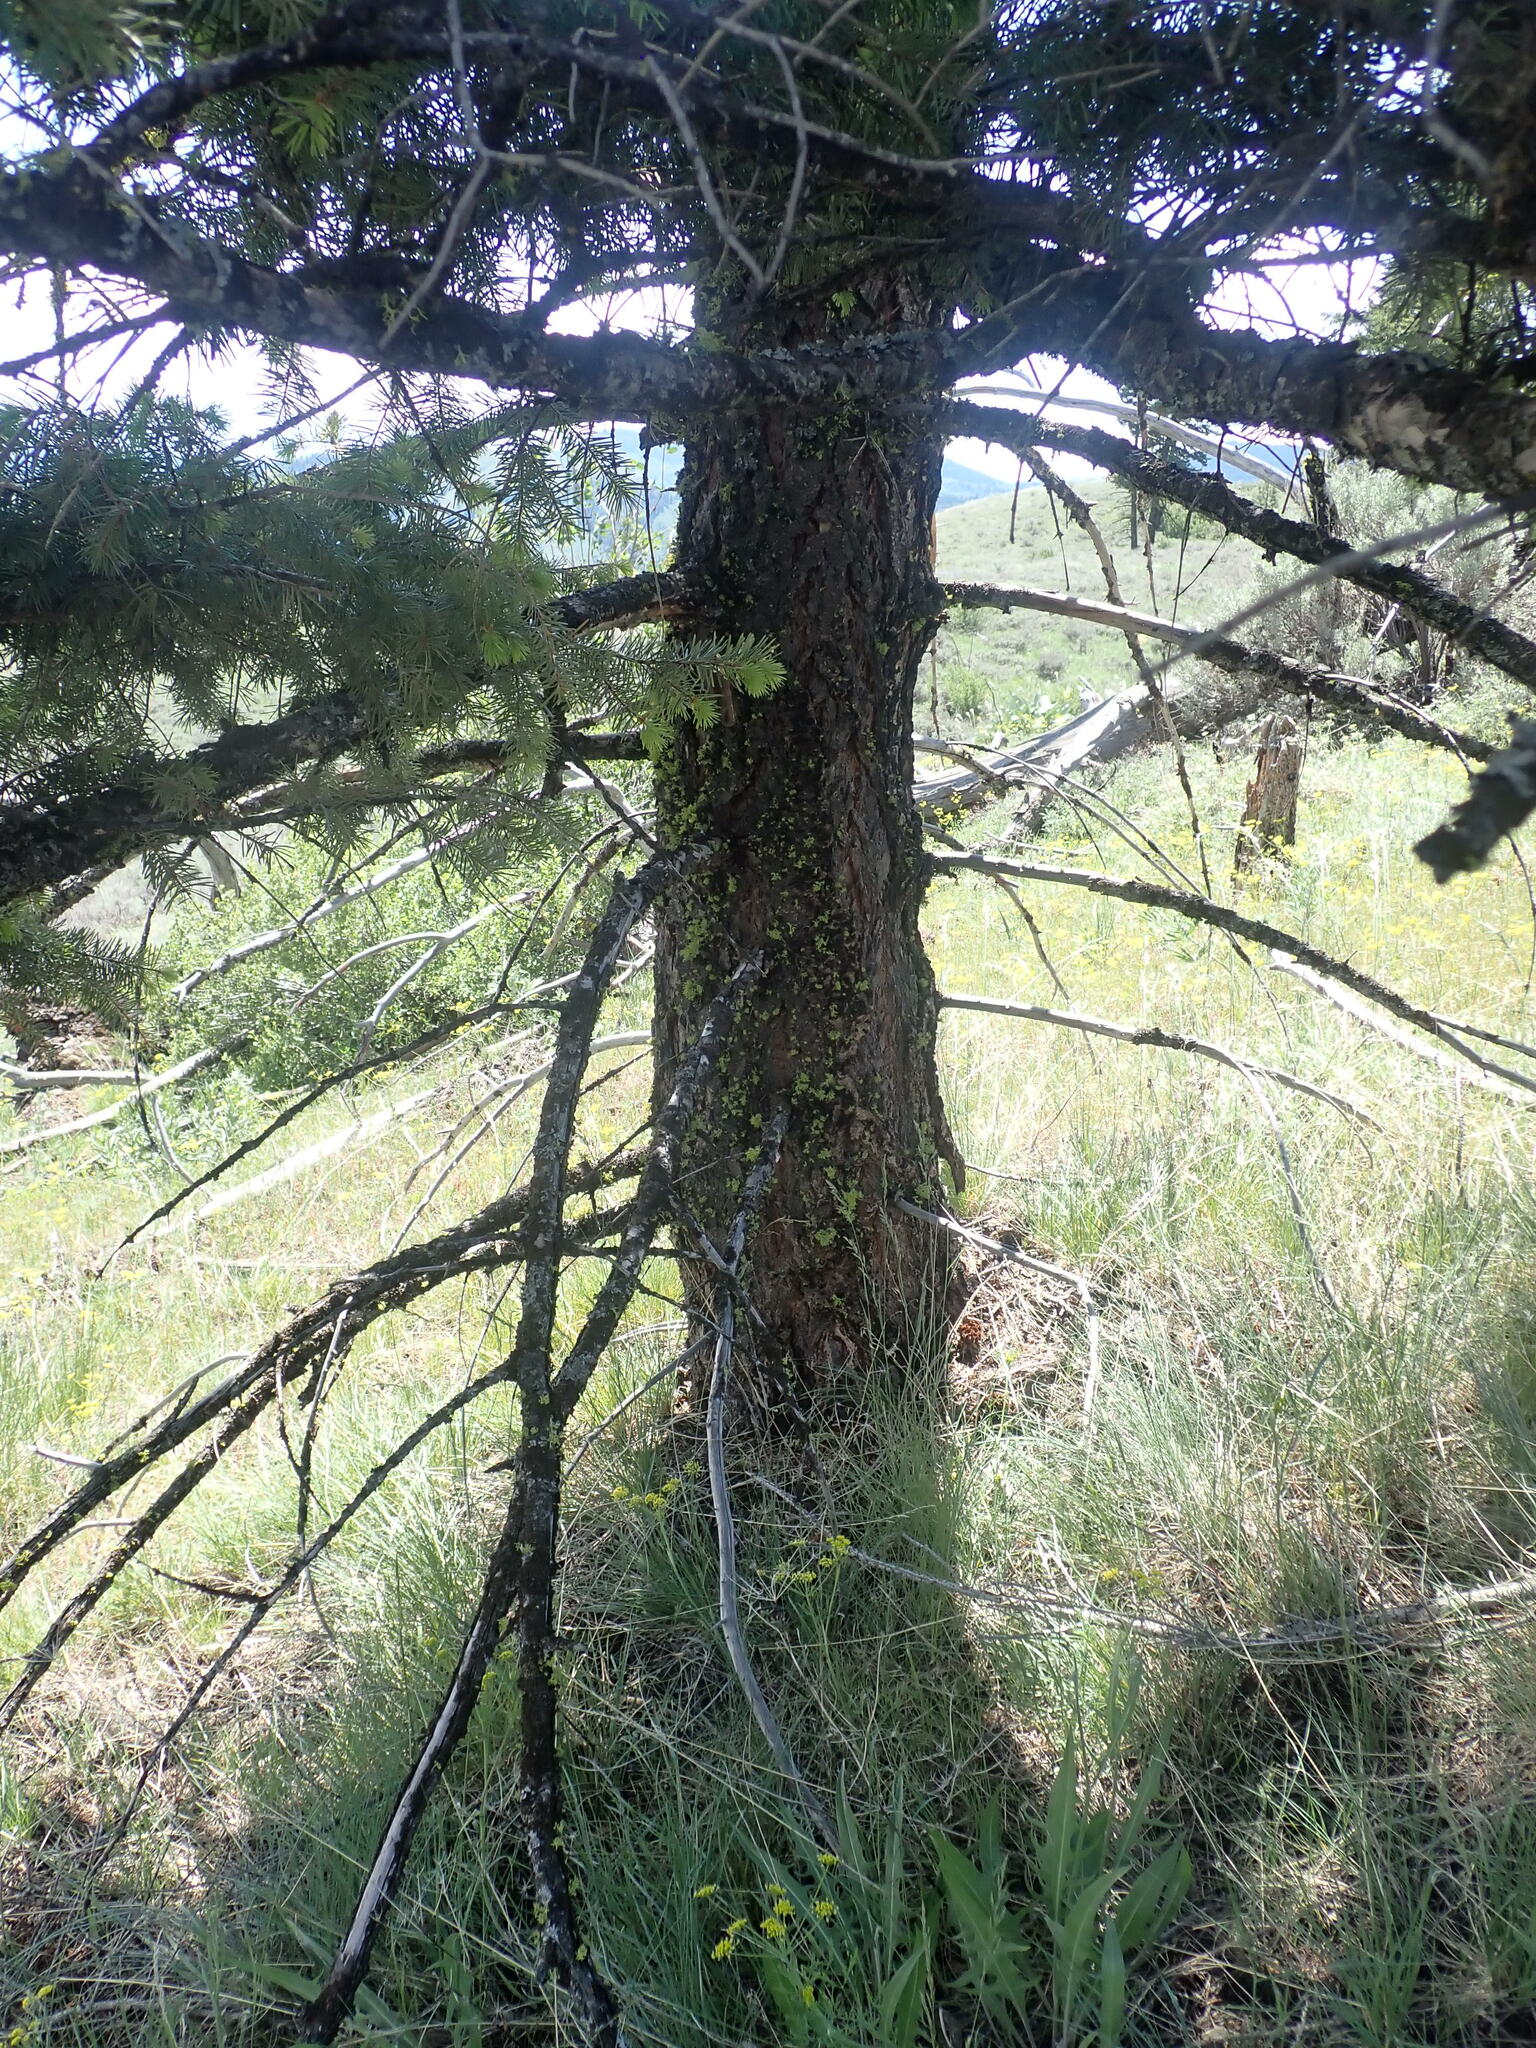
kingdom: Plantae
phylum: Tracheophyta
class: Pinopsida
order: Pinales
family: Pinaceae
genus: Pseudotsuga
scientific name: Pseudotsuga menziesii
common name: Douglas fir
